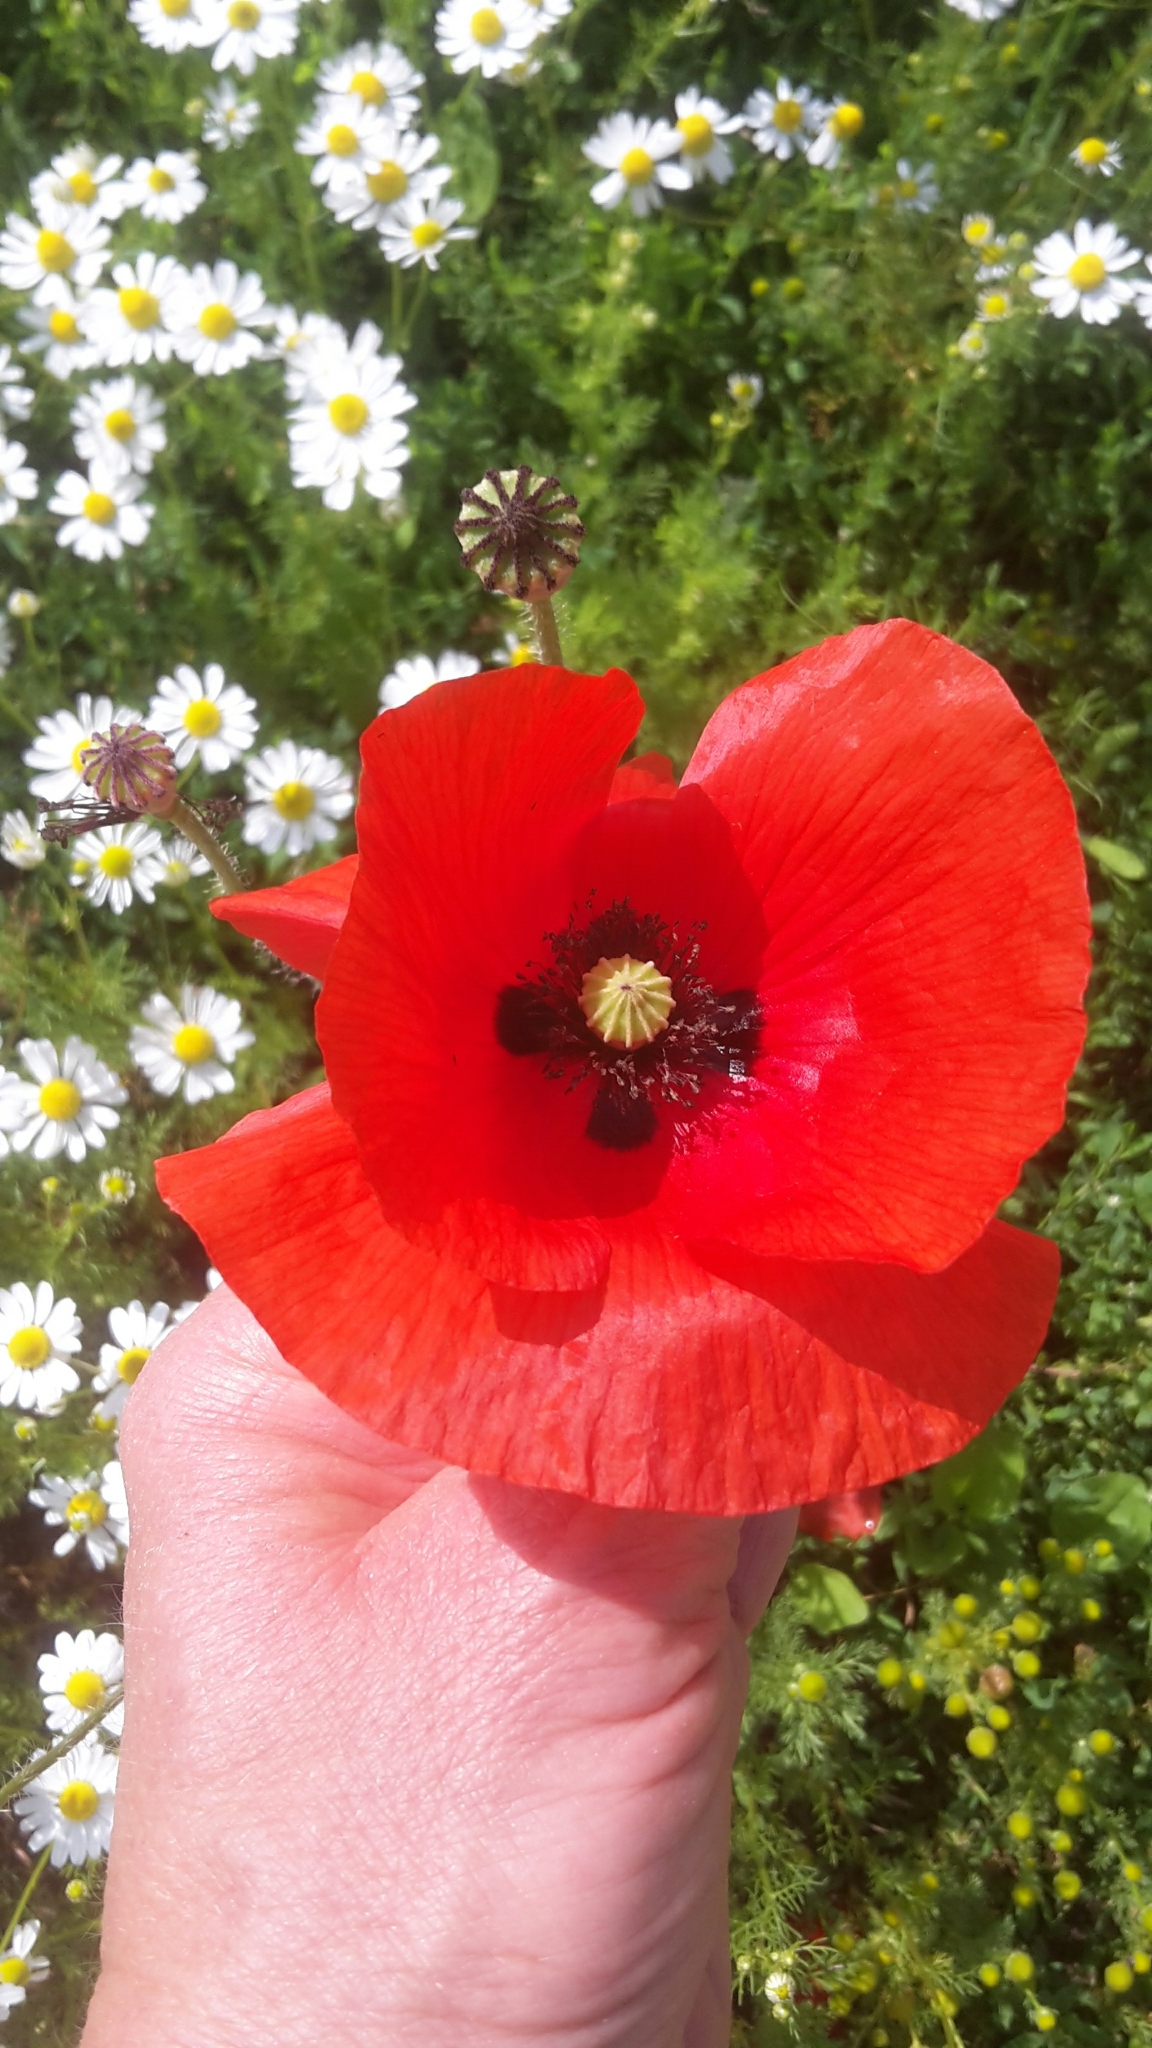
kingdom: Plantae
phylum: Tracheophyta
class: Magnoliopsida
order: Ranunculales
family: Papaveraceae
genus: Papaver
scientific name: Papaver rhoeas
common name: Corn poppy
